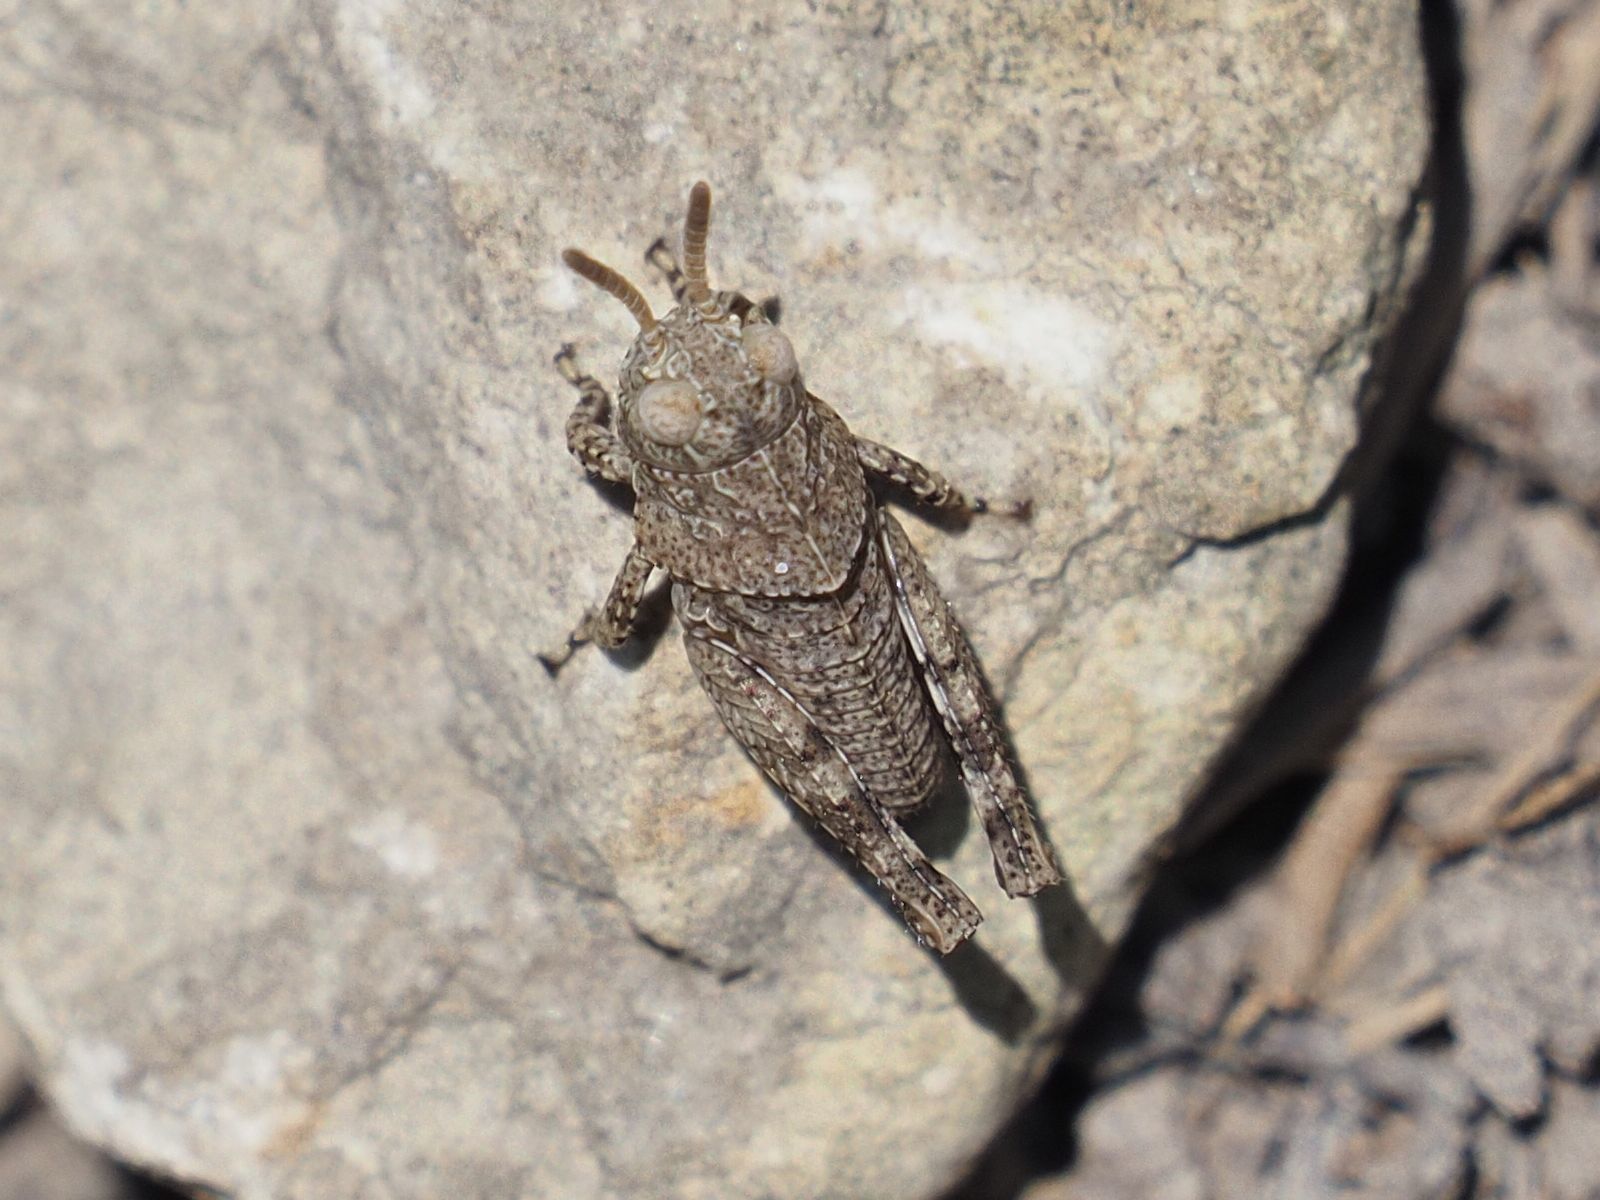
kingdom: Animalia
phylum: Arthropoda
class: Insecta
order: Orthoptera
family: Acrididae
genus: Oedipoda
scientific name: Oedipoda caerulescens
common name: Blue-winged grasshopper
